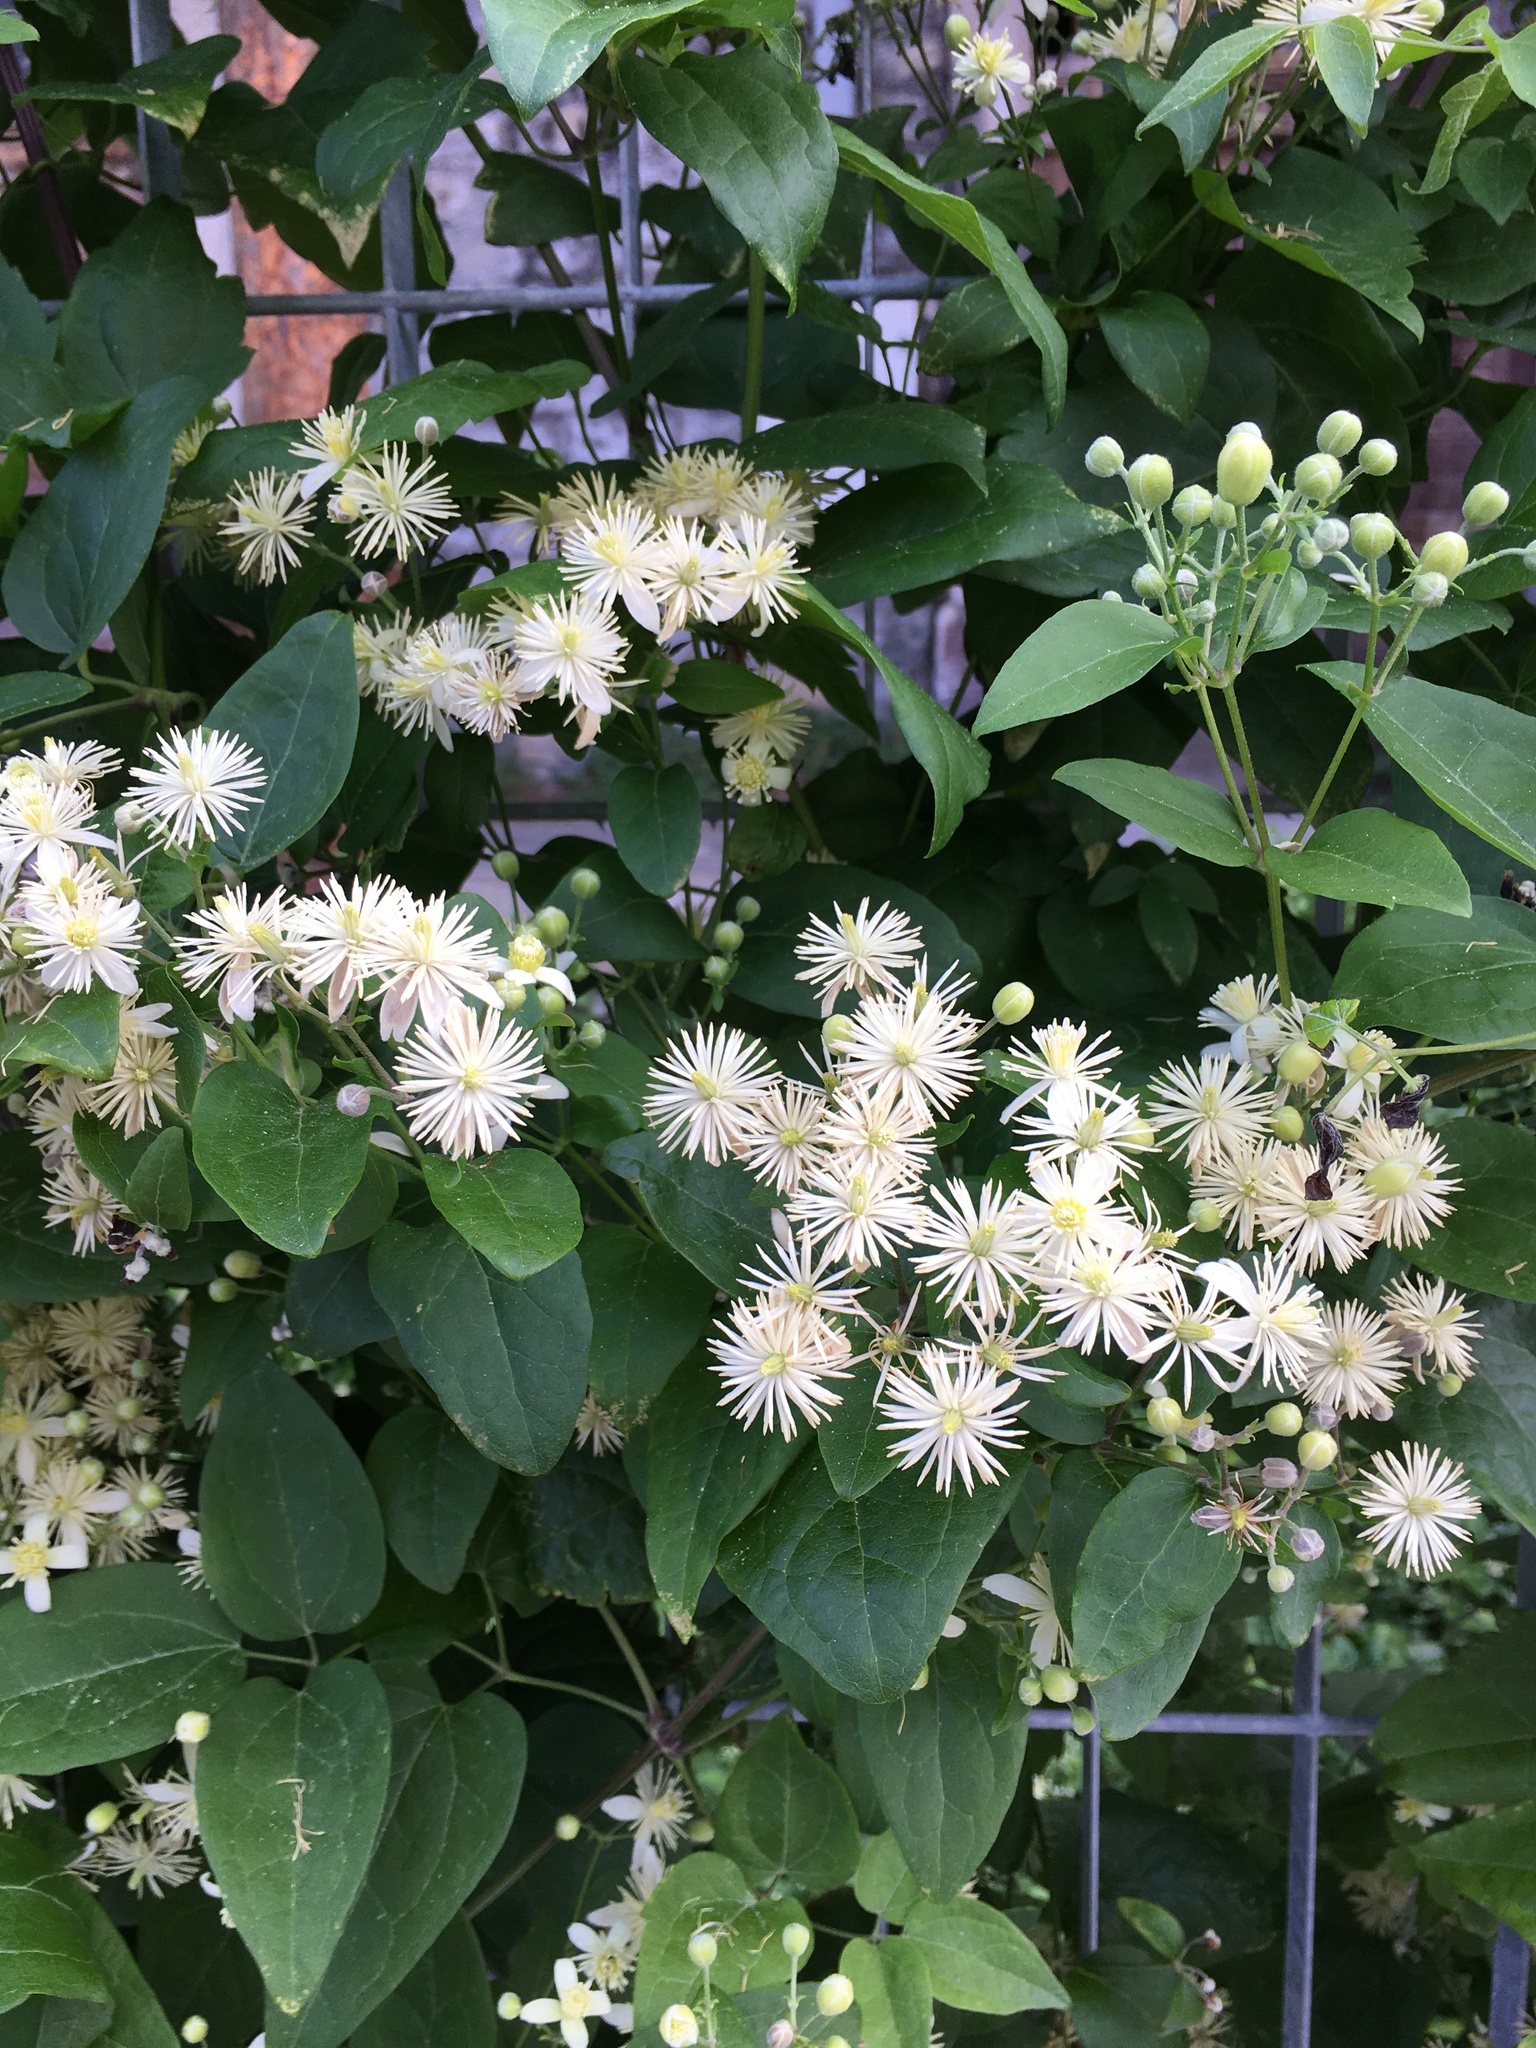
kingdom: Plantae
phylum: Tracheophyta
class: Magnoliopsida
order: Ranunculales
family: Ranunculaceae
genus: Clematis
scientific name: Clematis vitalba
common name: Evergreen clematis
